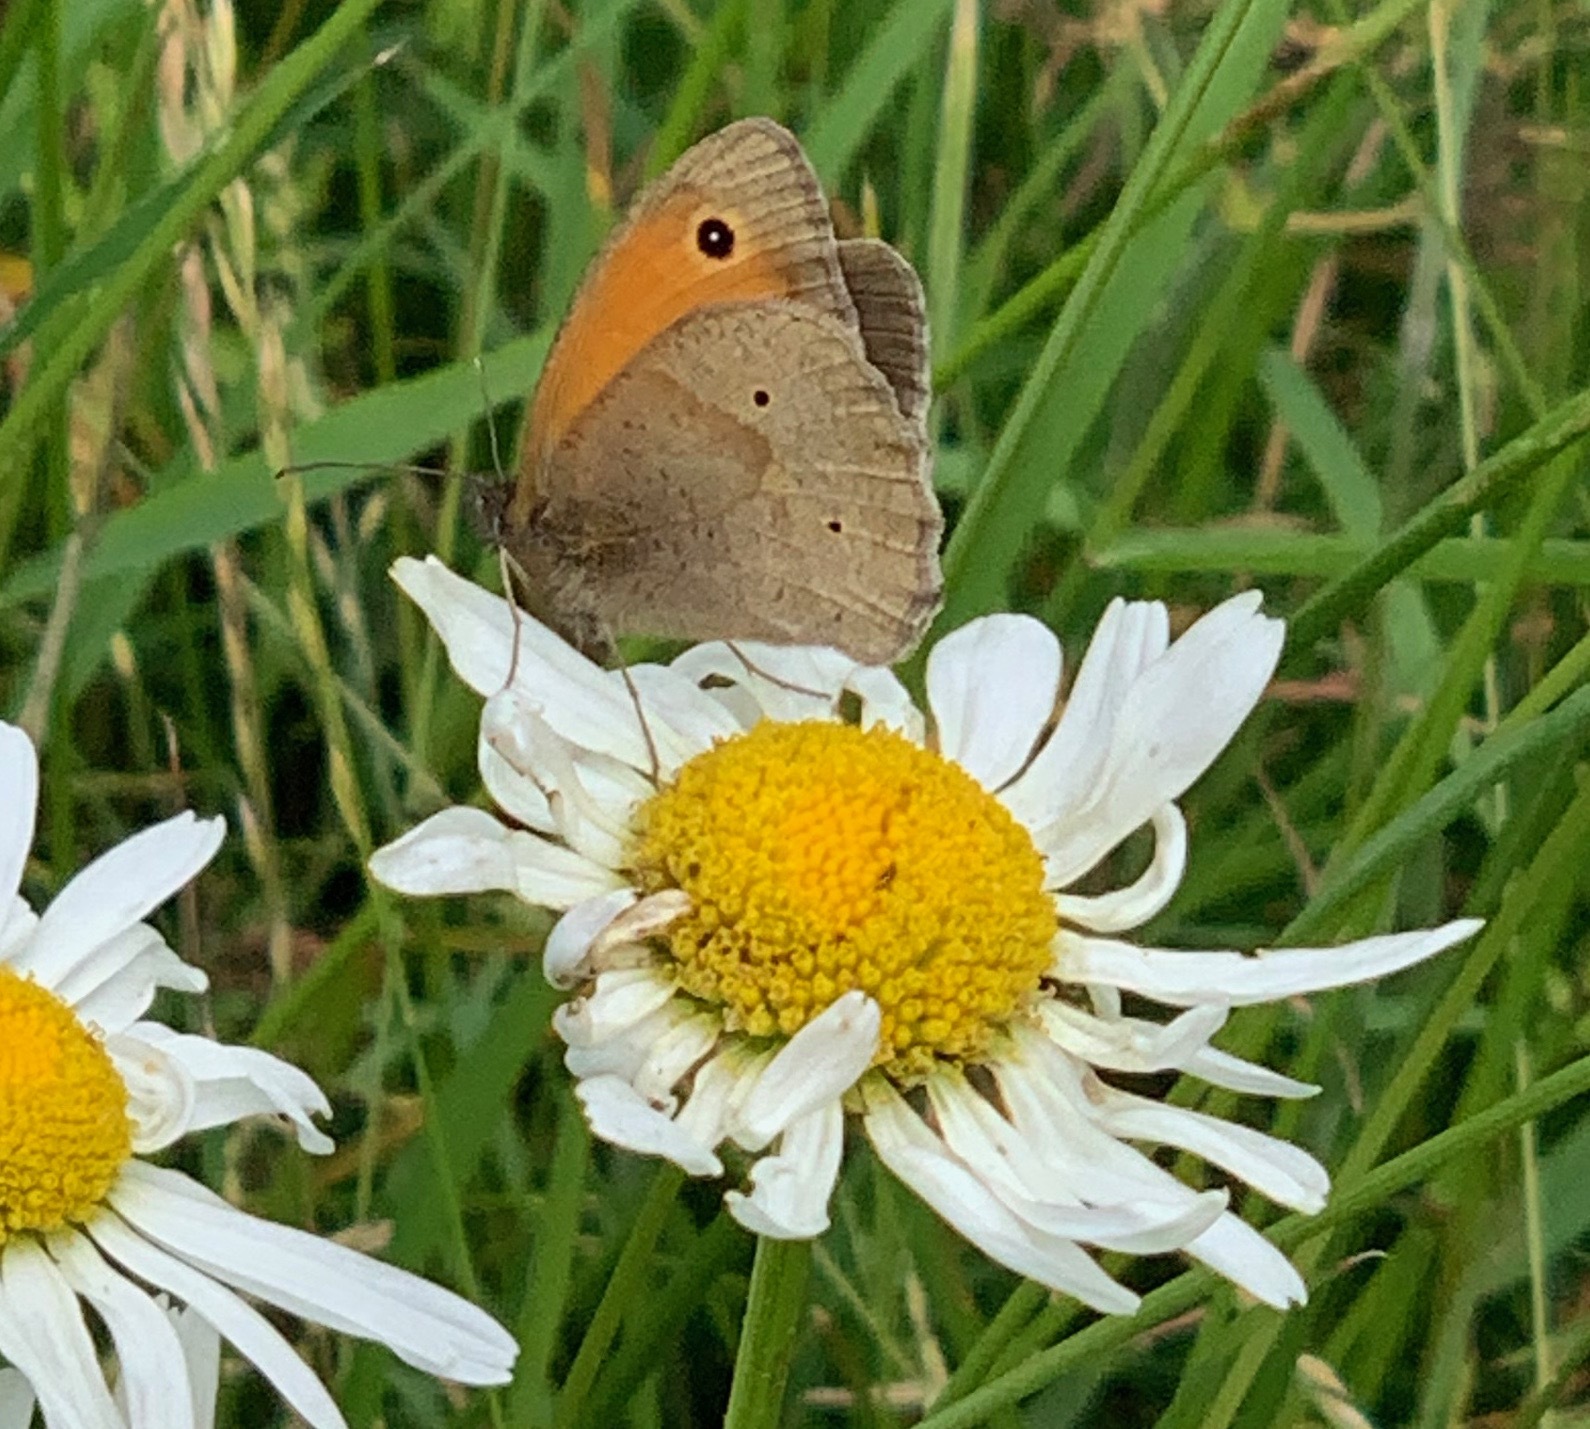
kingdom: Animalia
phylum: Arthropoda
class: Insecta
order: Lepidoptera
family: Nymphalidae
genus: Maniola
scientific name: Maniola jurtina
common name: Meadow brown
